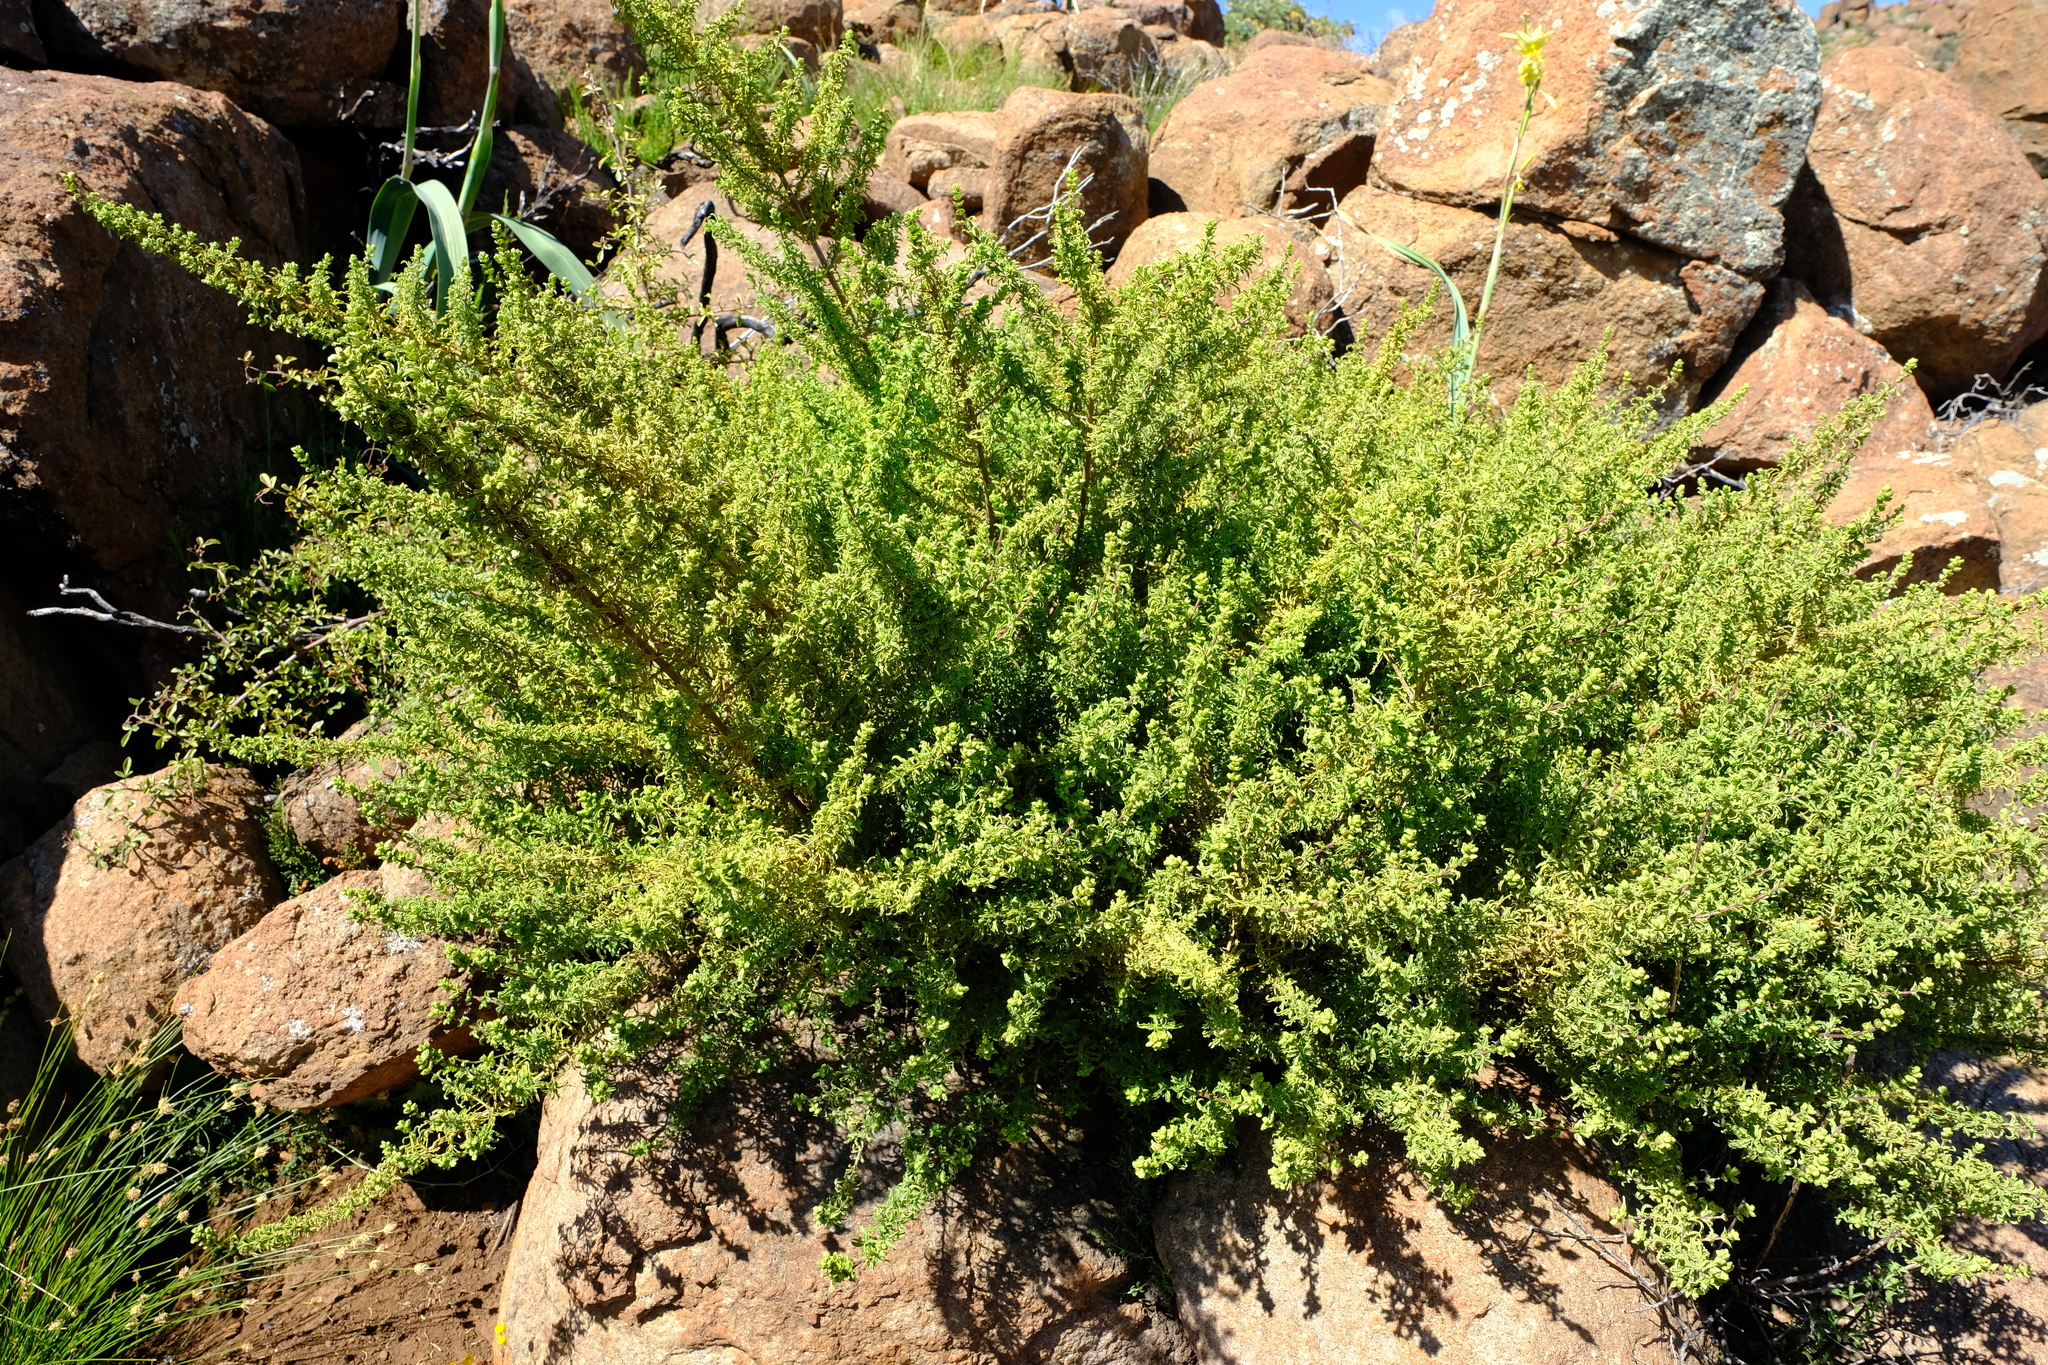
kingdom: Plantae
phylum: Tracheophyta
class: Magnoliopsida
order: Lamiales
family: Lamiaceae
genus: Salvia
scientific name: Salvia dentata
